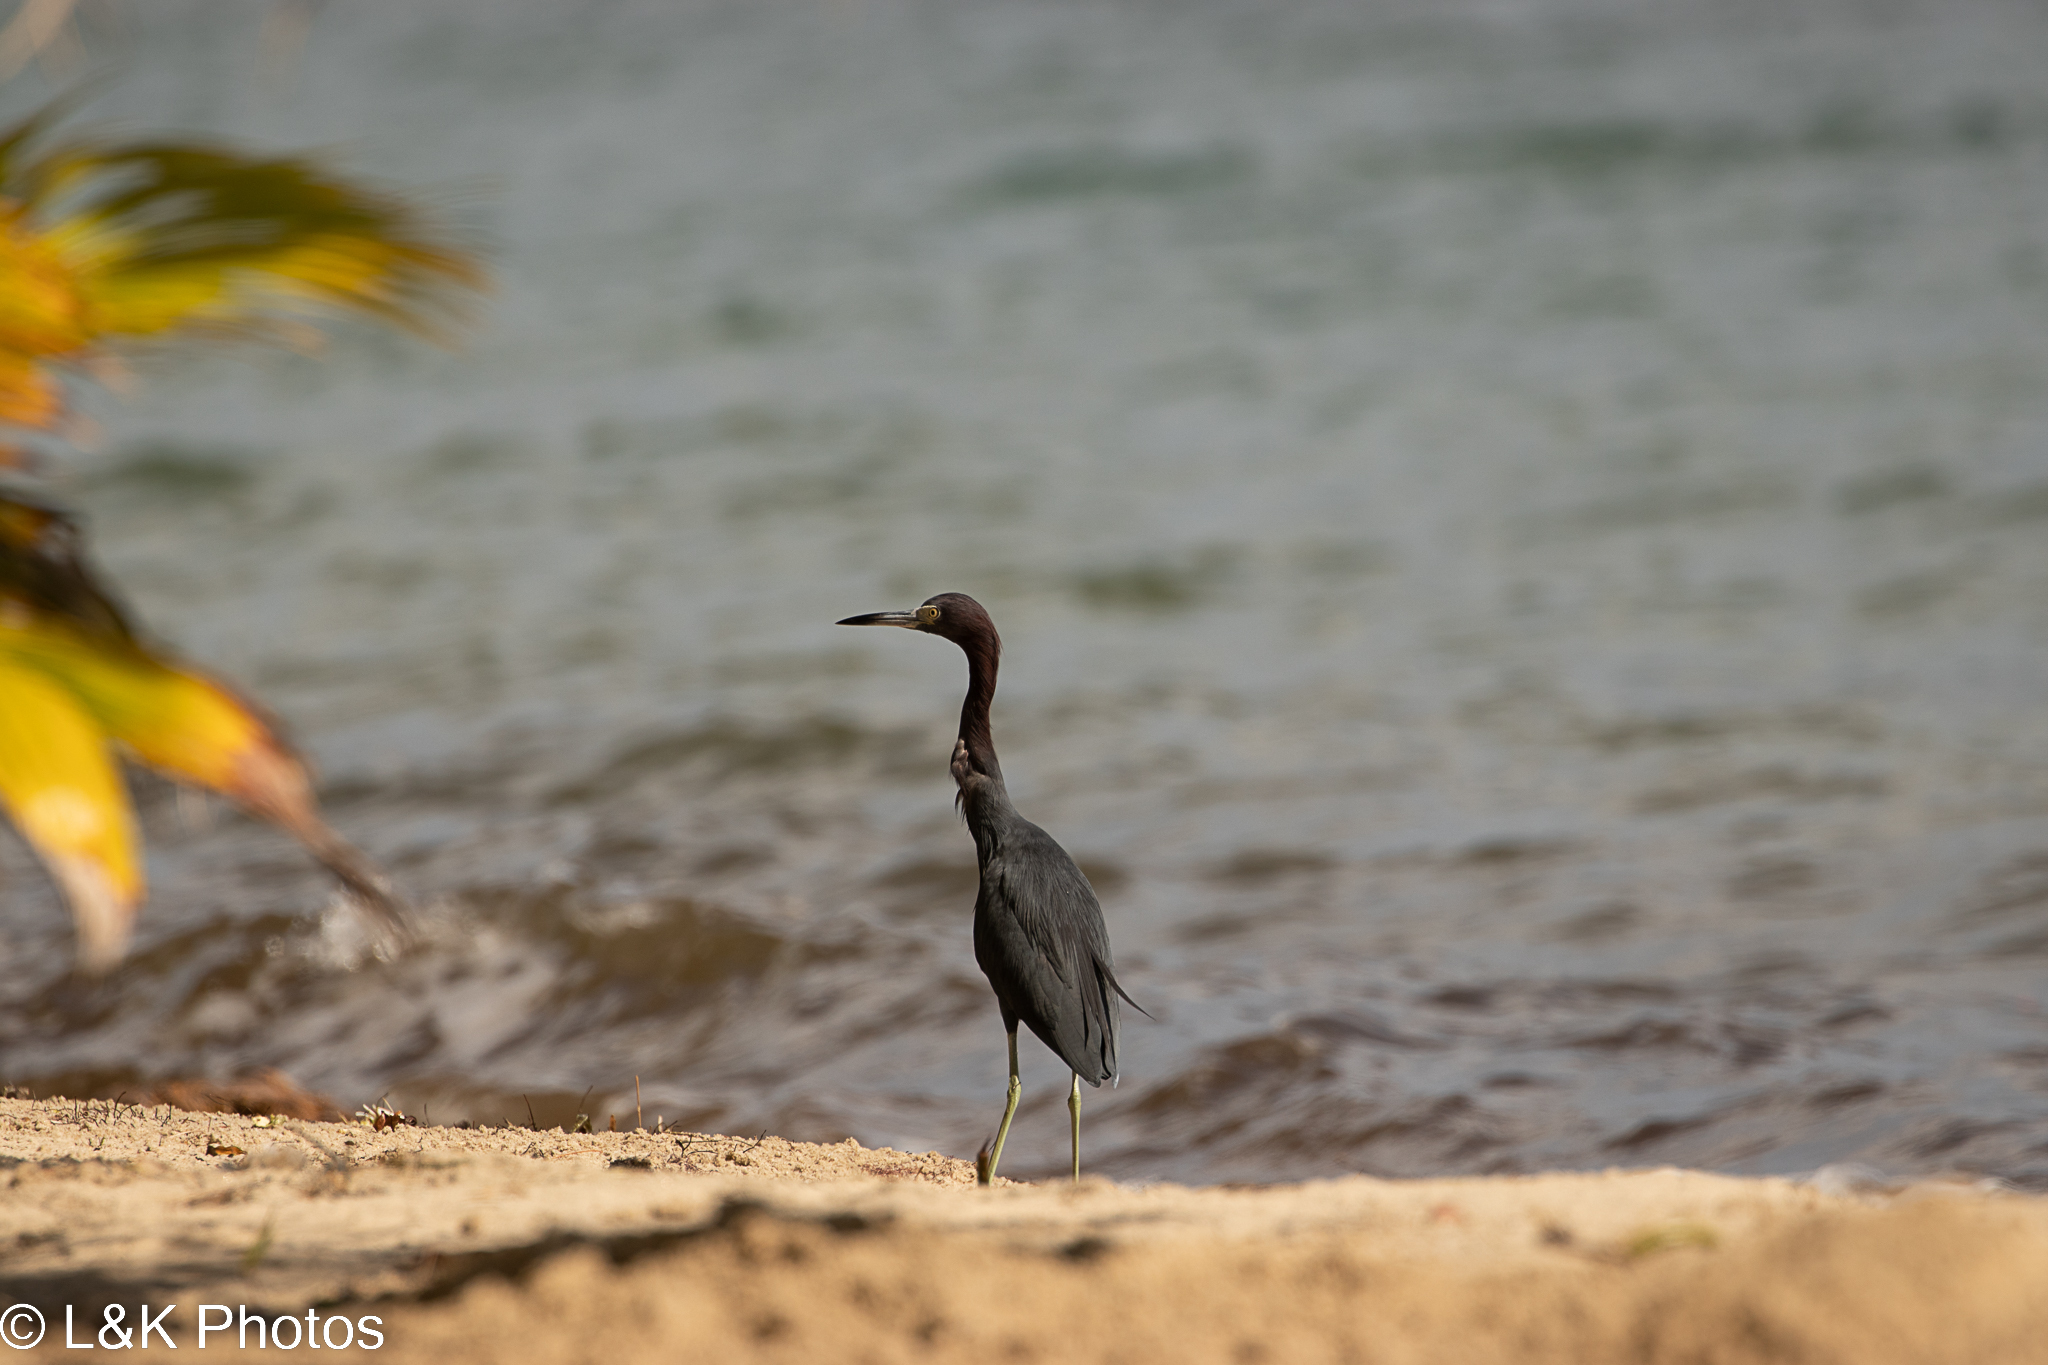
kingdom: Animalia
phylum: Chordata
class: Aves
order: Pelecaniformes
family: Ardeidae
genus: Egretta
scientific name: Egretta caerulea
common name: Little blue heron
